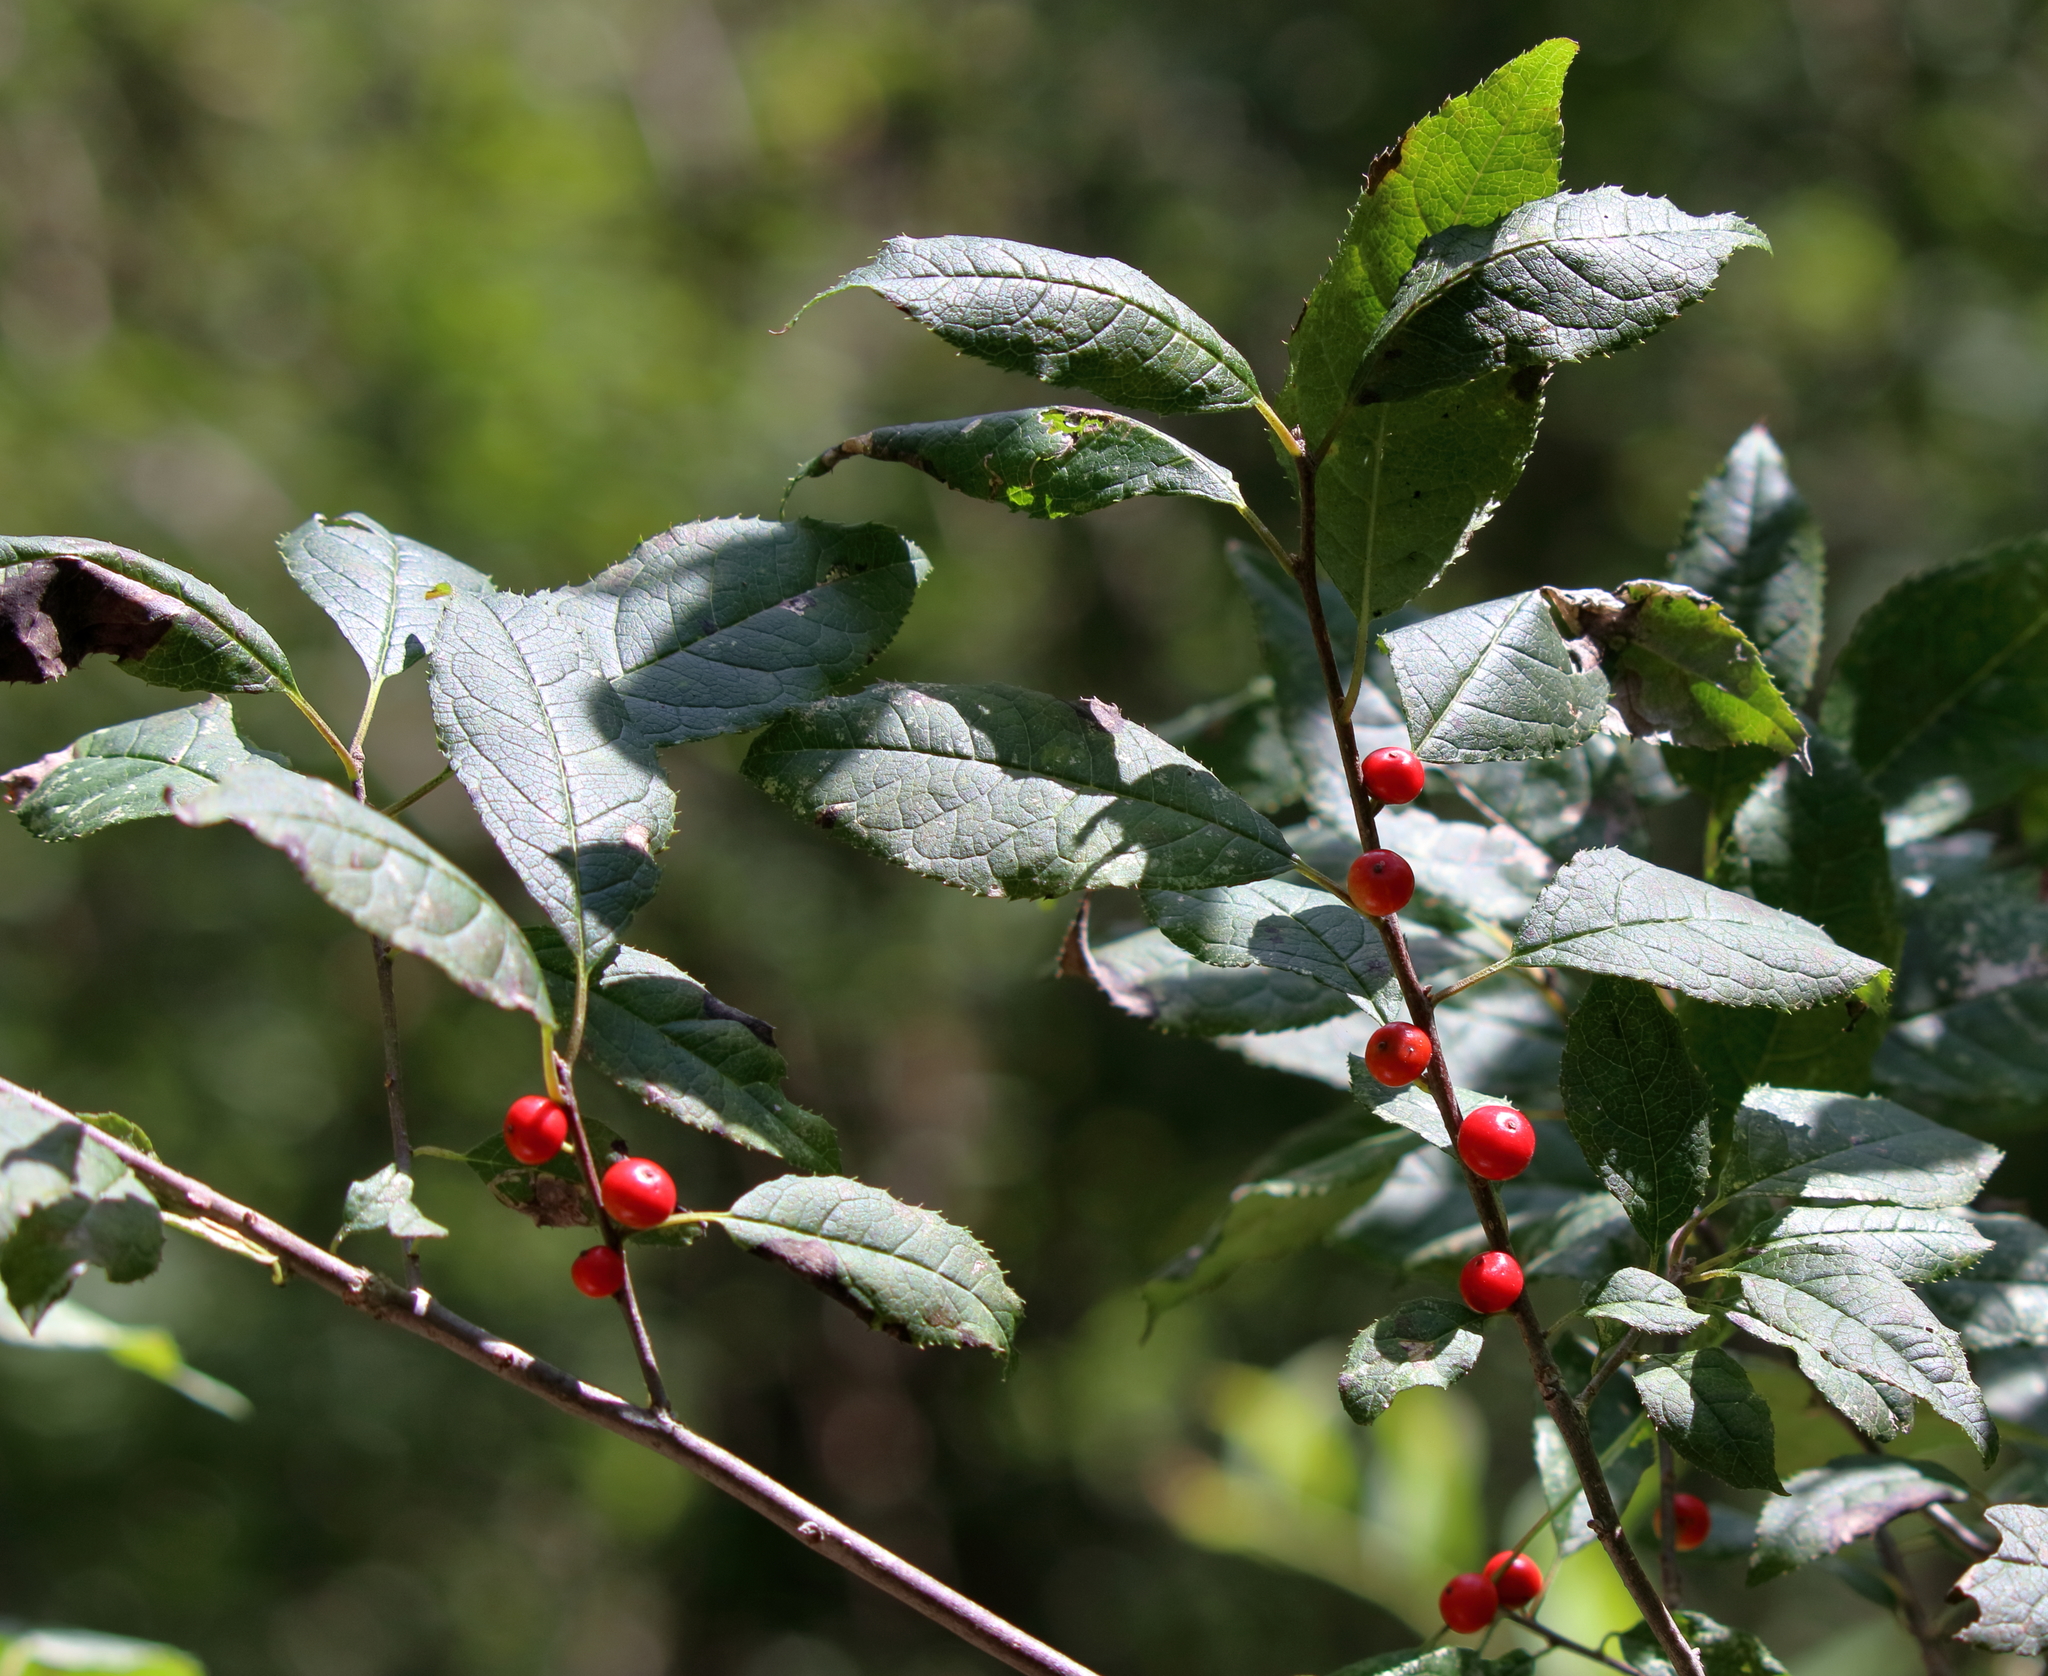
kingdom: Plantae
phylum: Tracheophyta
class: Magnoliopsida
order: Aquifoliales
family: Aquifoliaceae
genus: Ilex
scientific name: Ilex verticillata
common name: Virginia winterberry
